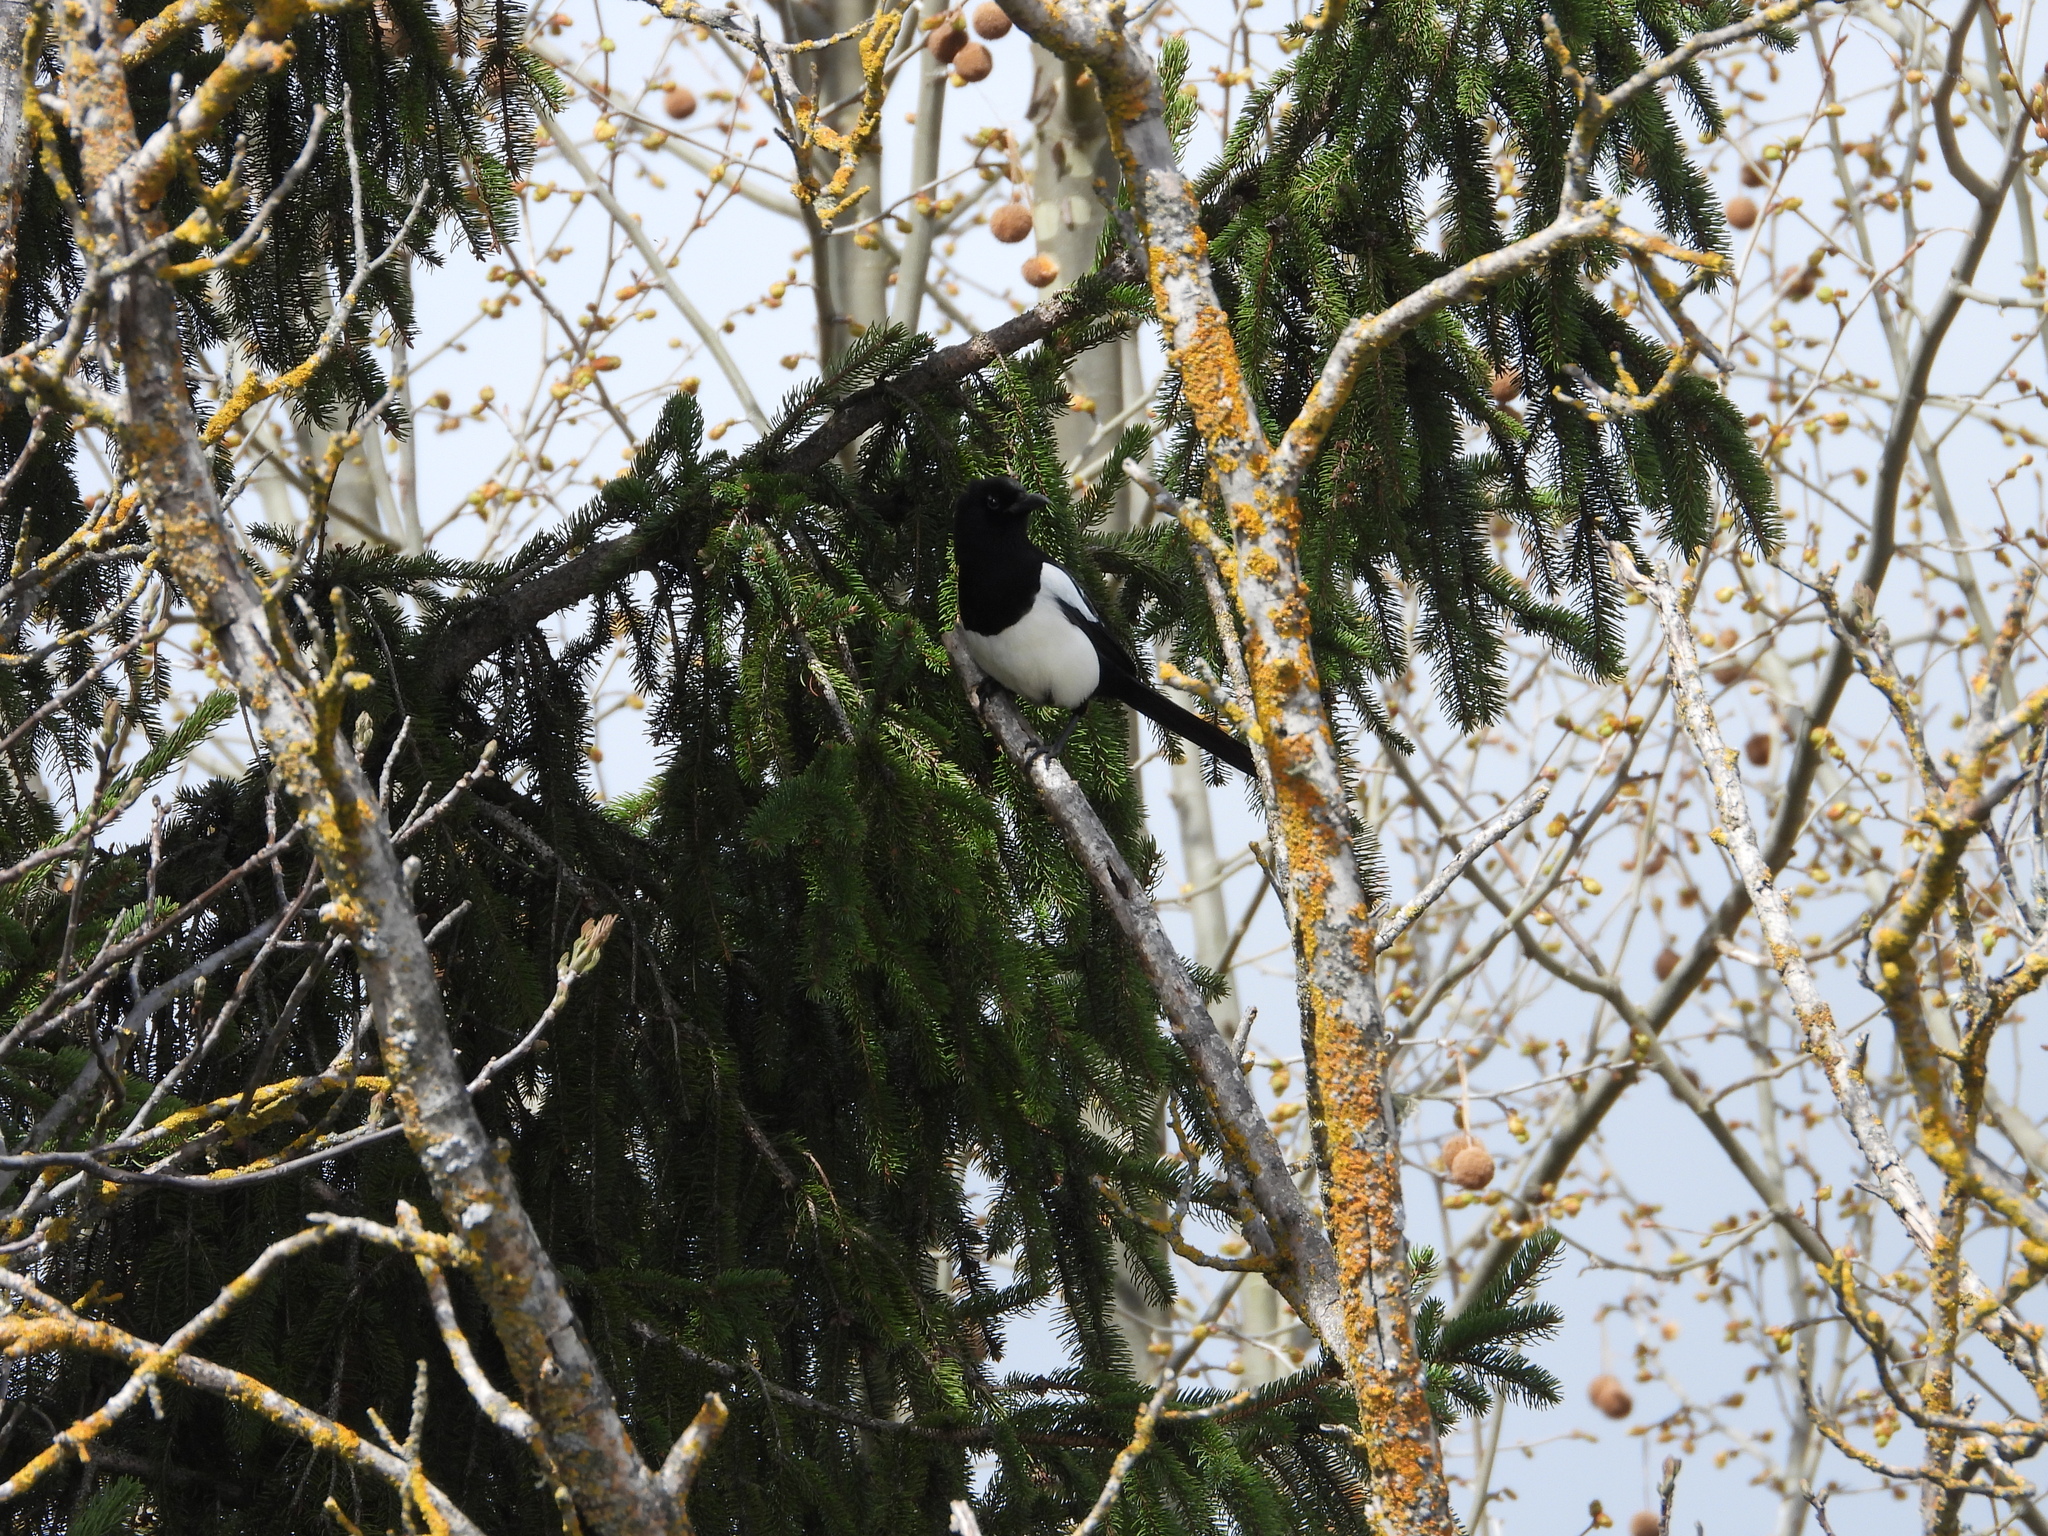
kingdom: Animalia
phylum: Chordata
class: Aves
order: Passeriformes
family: Corvidae
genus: Pica
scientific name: Pica pica
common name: Eurasian magpie
